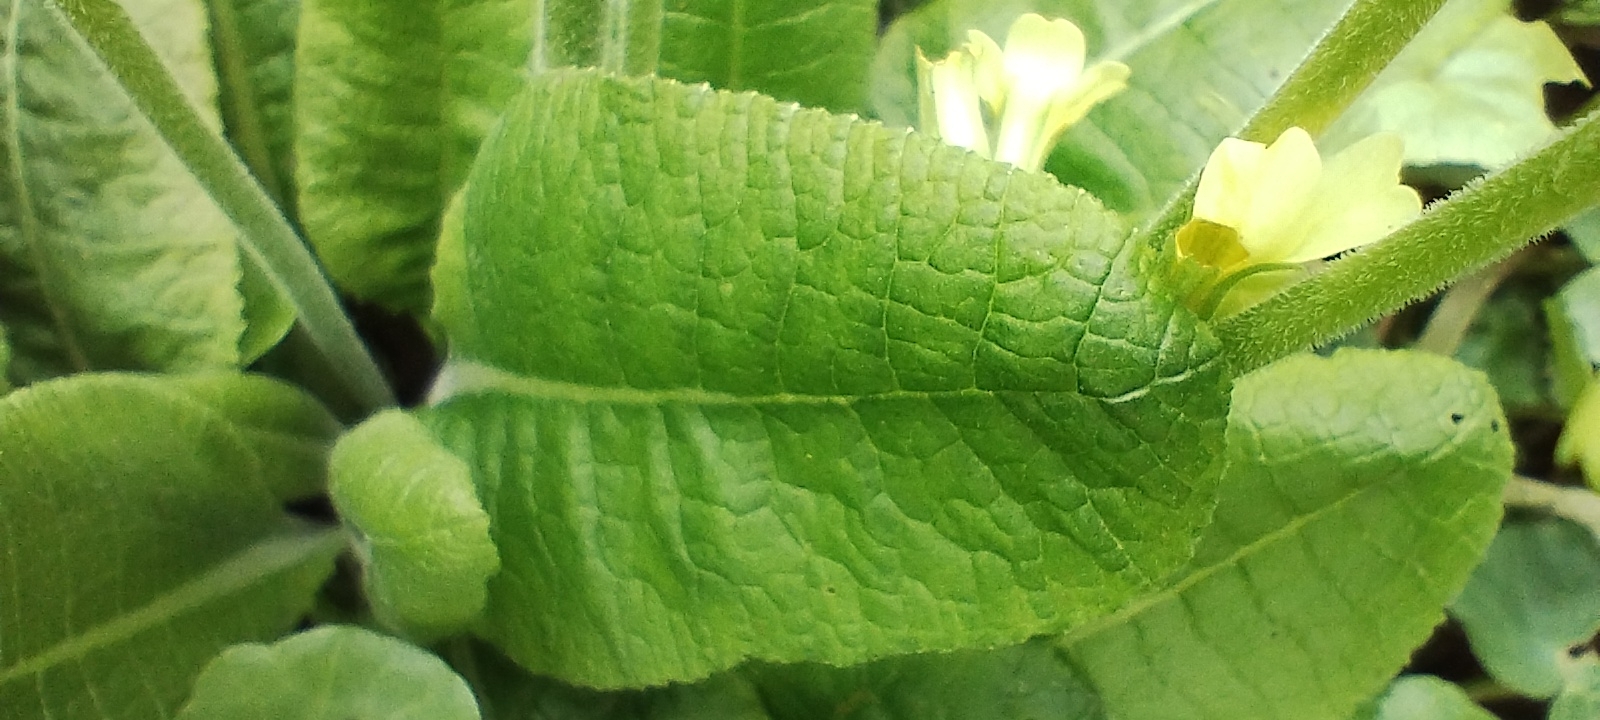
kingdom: Plantae
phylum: Tracheophyta
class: Magnoliopsida
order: Ericales
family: Primulaceae
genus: Primula
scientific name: Primula elatior
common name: Oxlip
